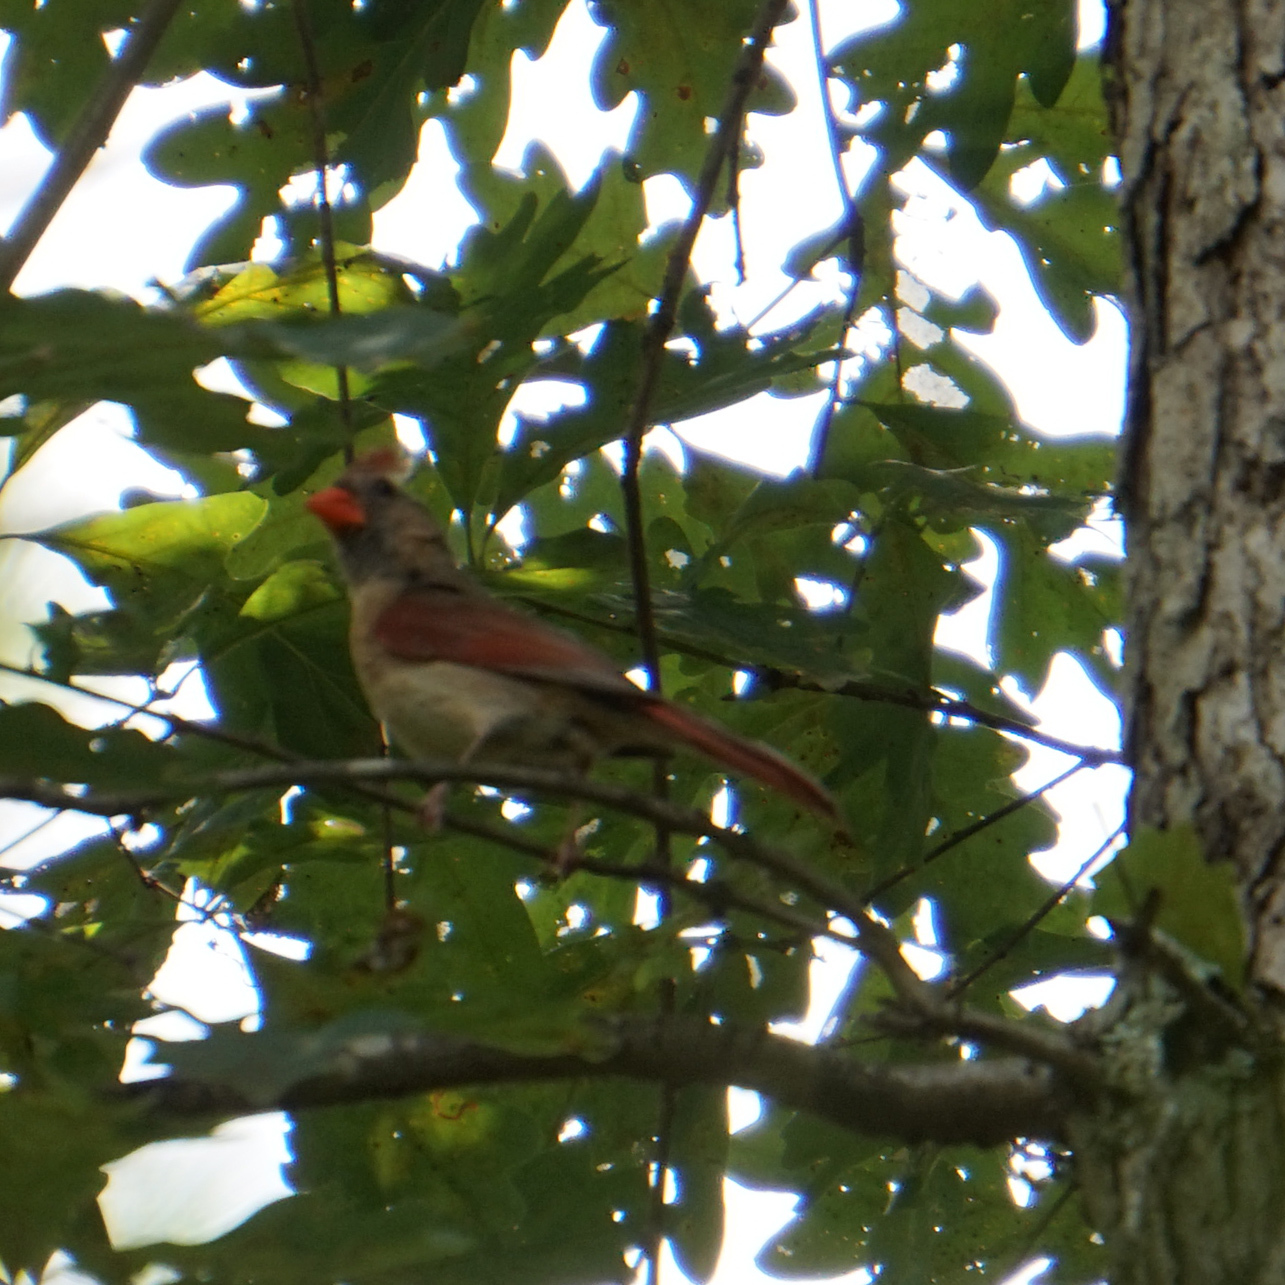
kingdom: Animalia
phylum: Chordata
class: Aves
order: Passeriformes
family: Cardinalidae
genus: Cardinalis
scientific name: Cardinalis cardinalis
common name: Northern cardinal
